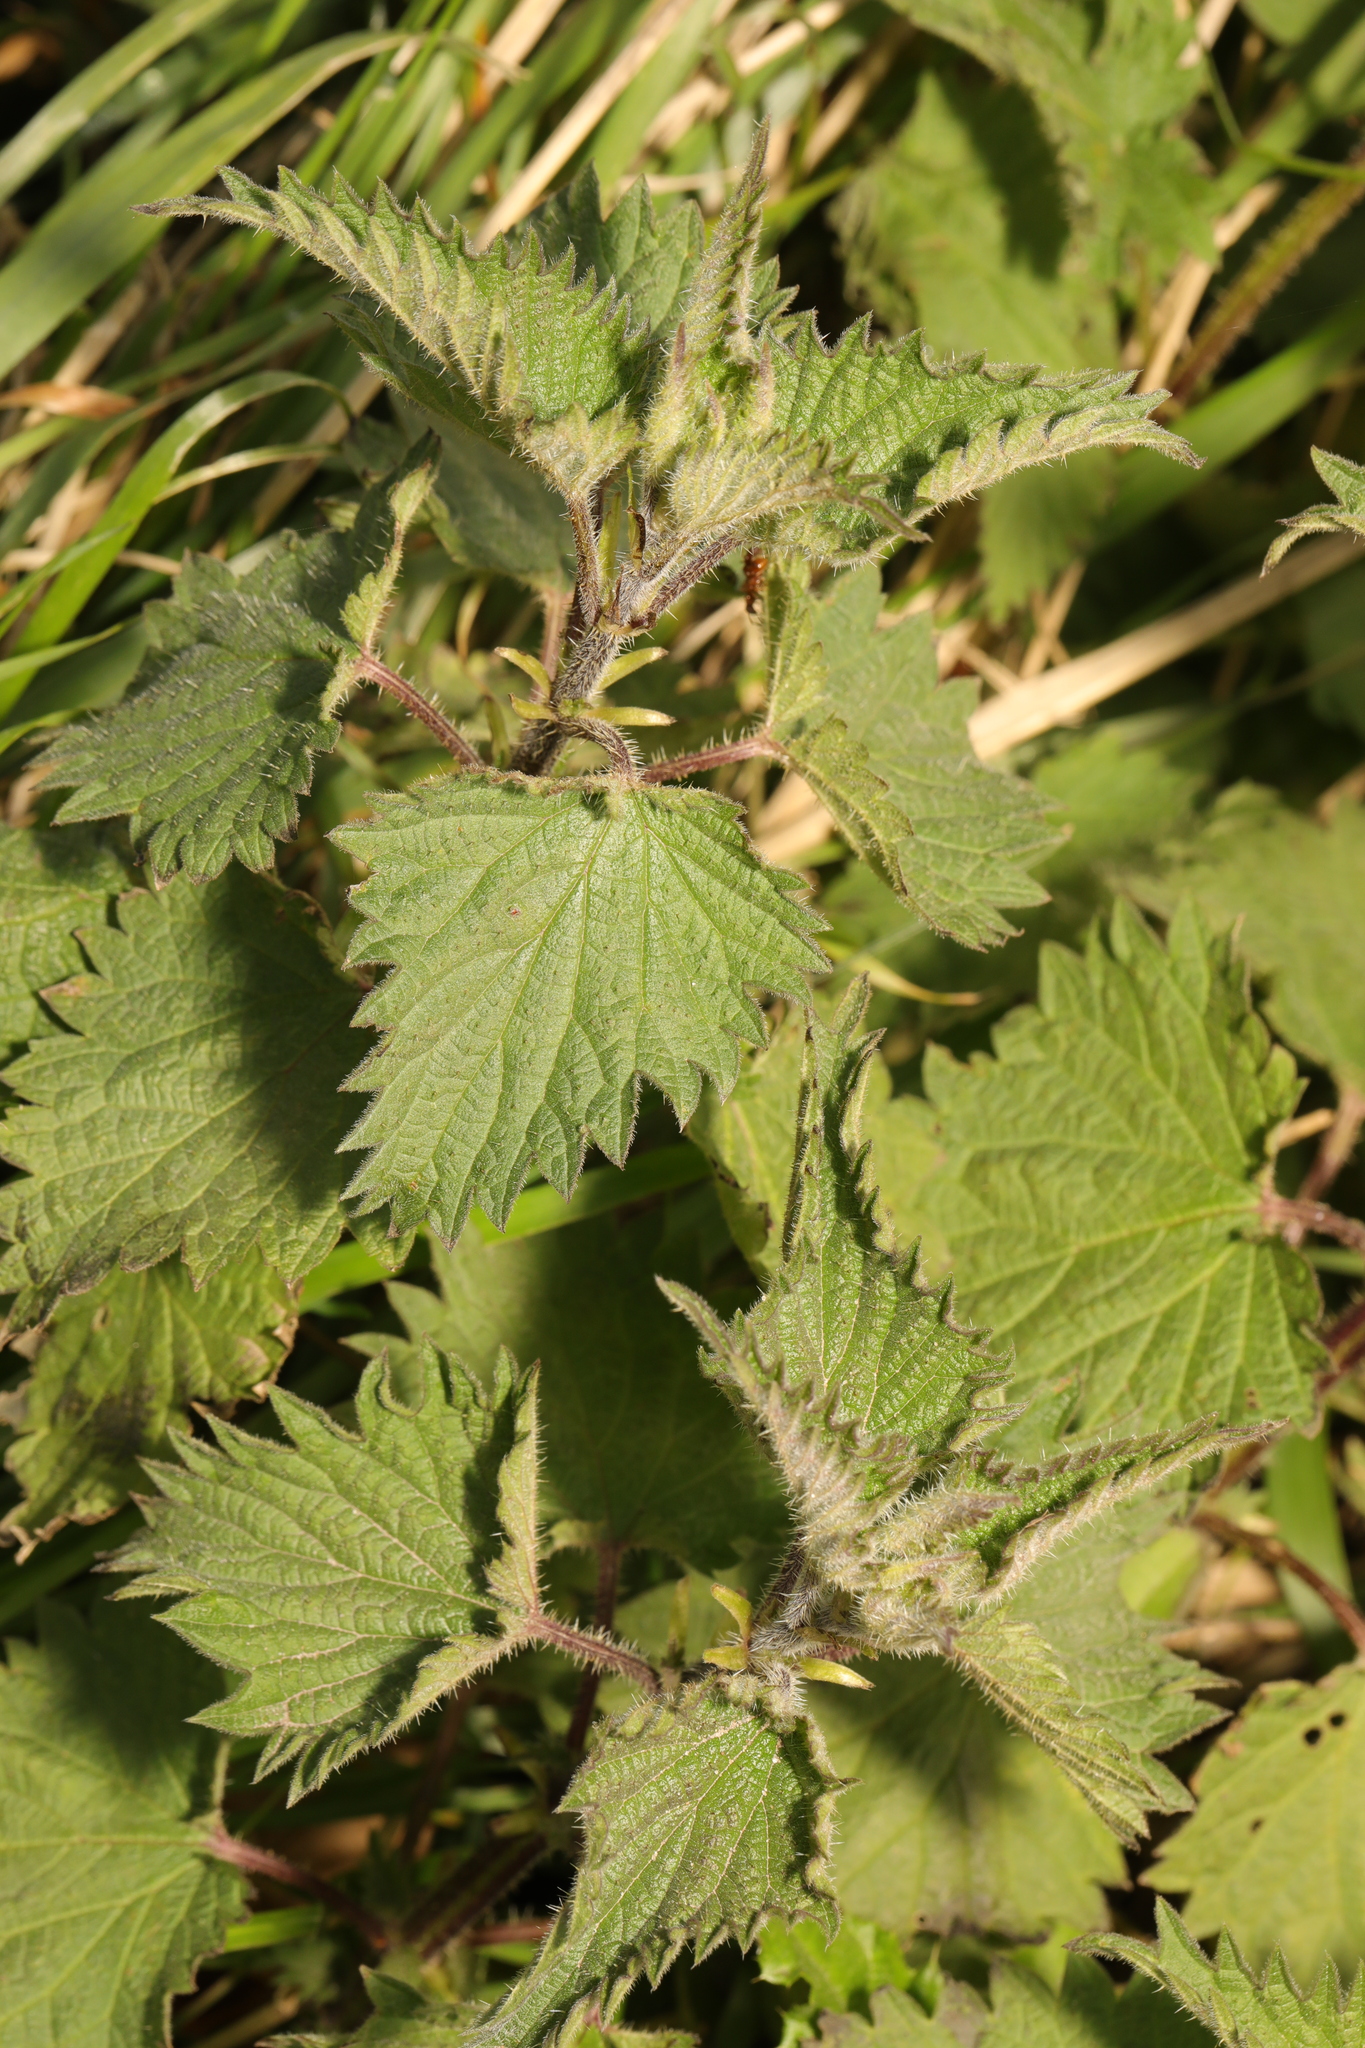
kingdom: Plantae
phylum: Tracheophyta
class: Magnoliopsida
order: Rosales
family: Urticaceae
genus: Urtica
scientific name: Urtica dioica
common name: Common nettle
